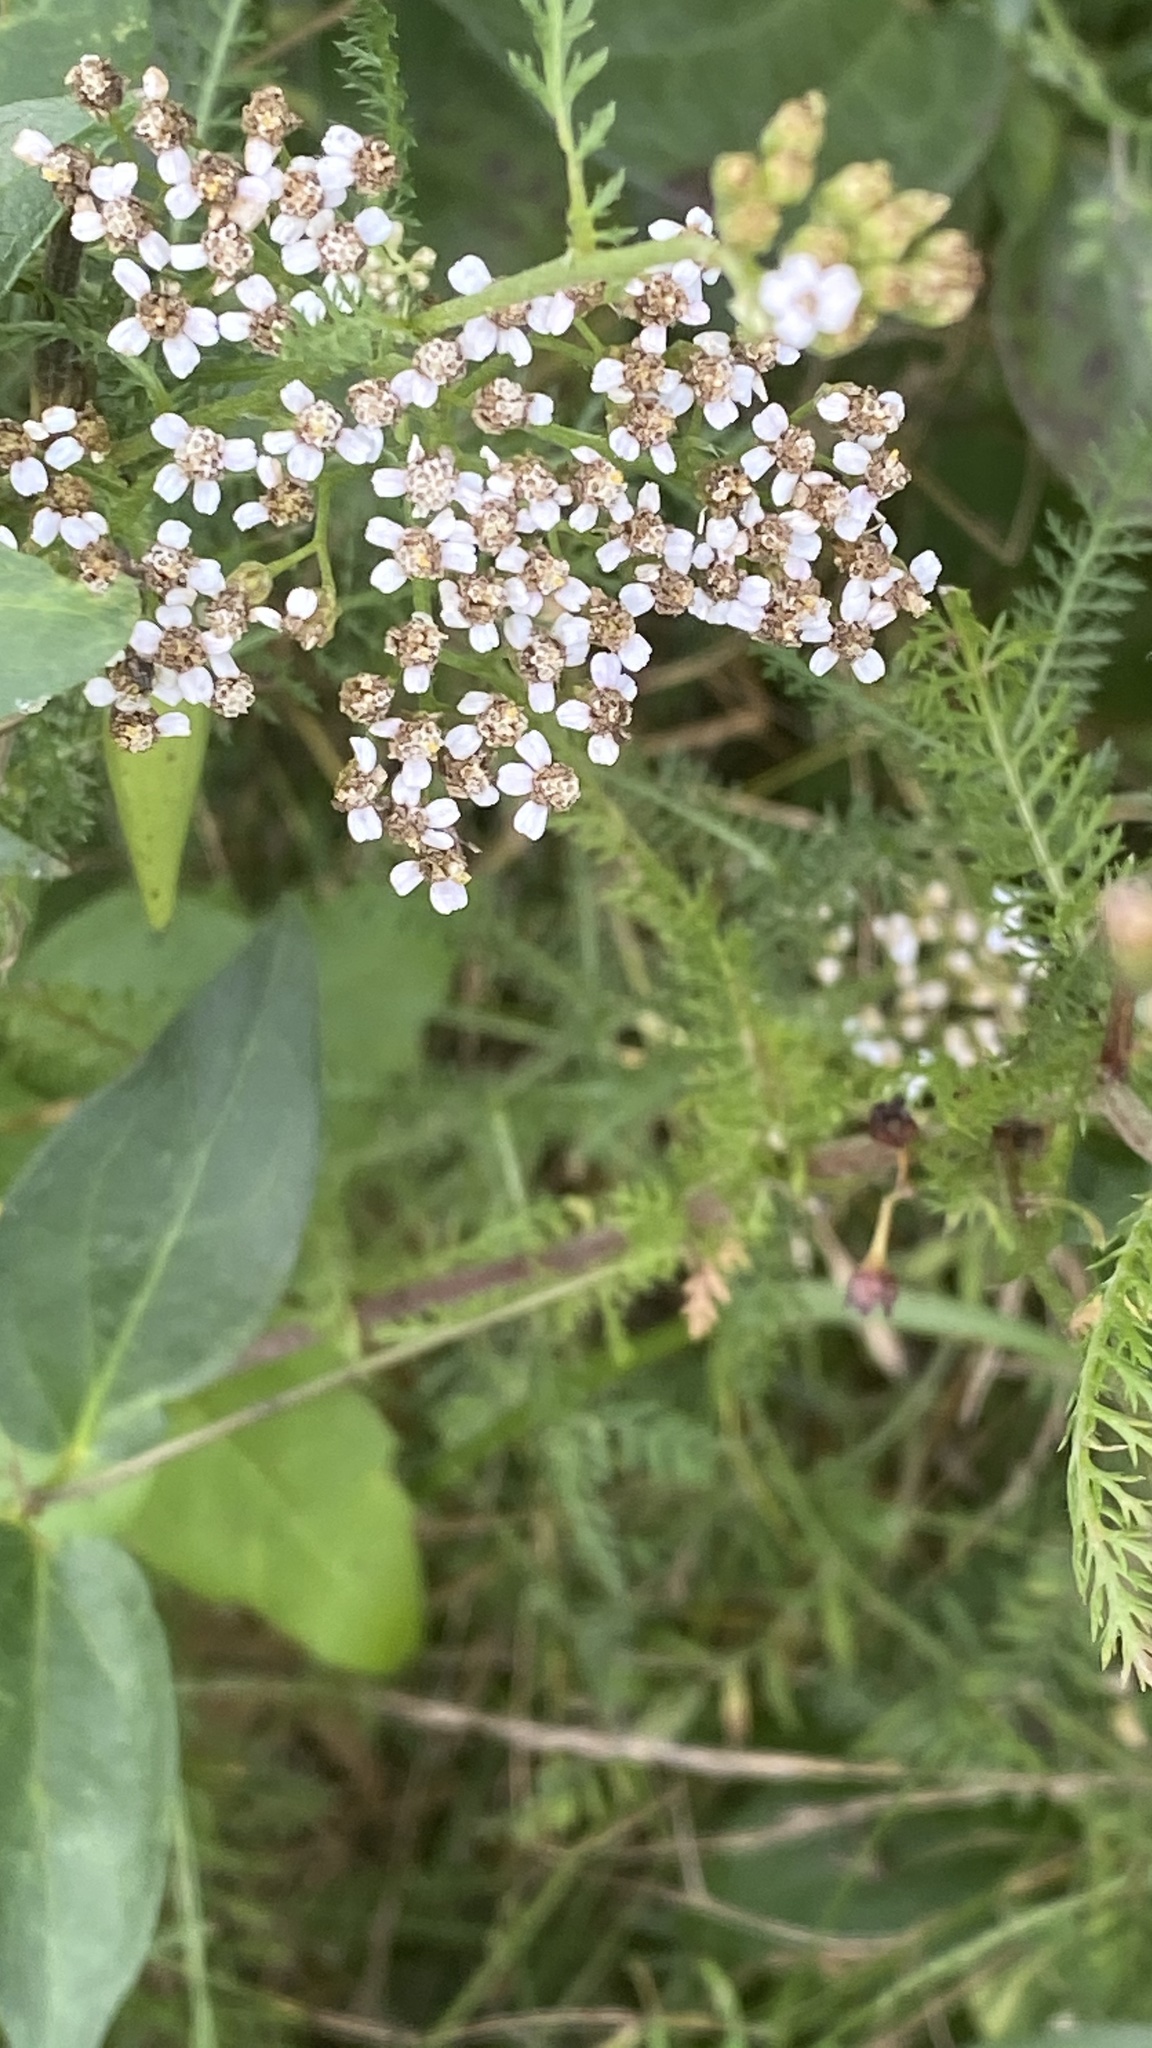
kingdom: Plantae
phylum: Tracheophyta
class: Magnoliopsida
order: Asterales
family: Asteraceae
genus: Achillea
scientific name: Achillea millefolium
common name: Yarrow
